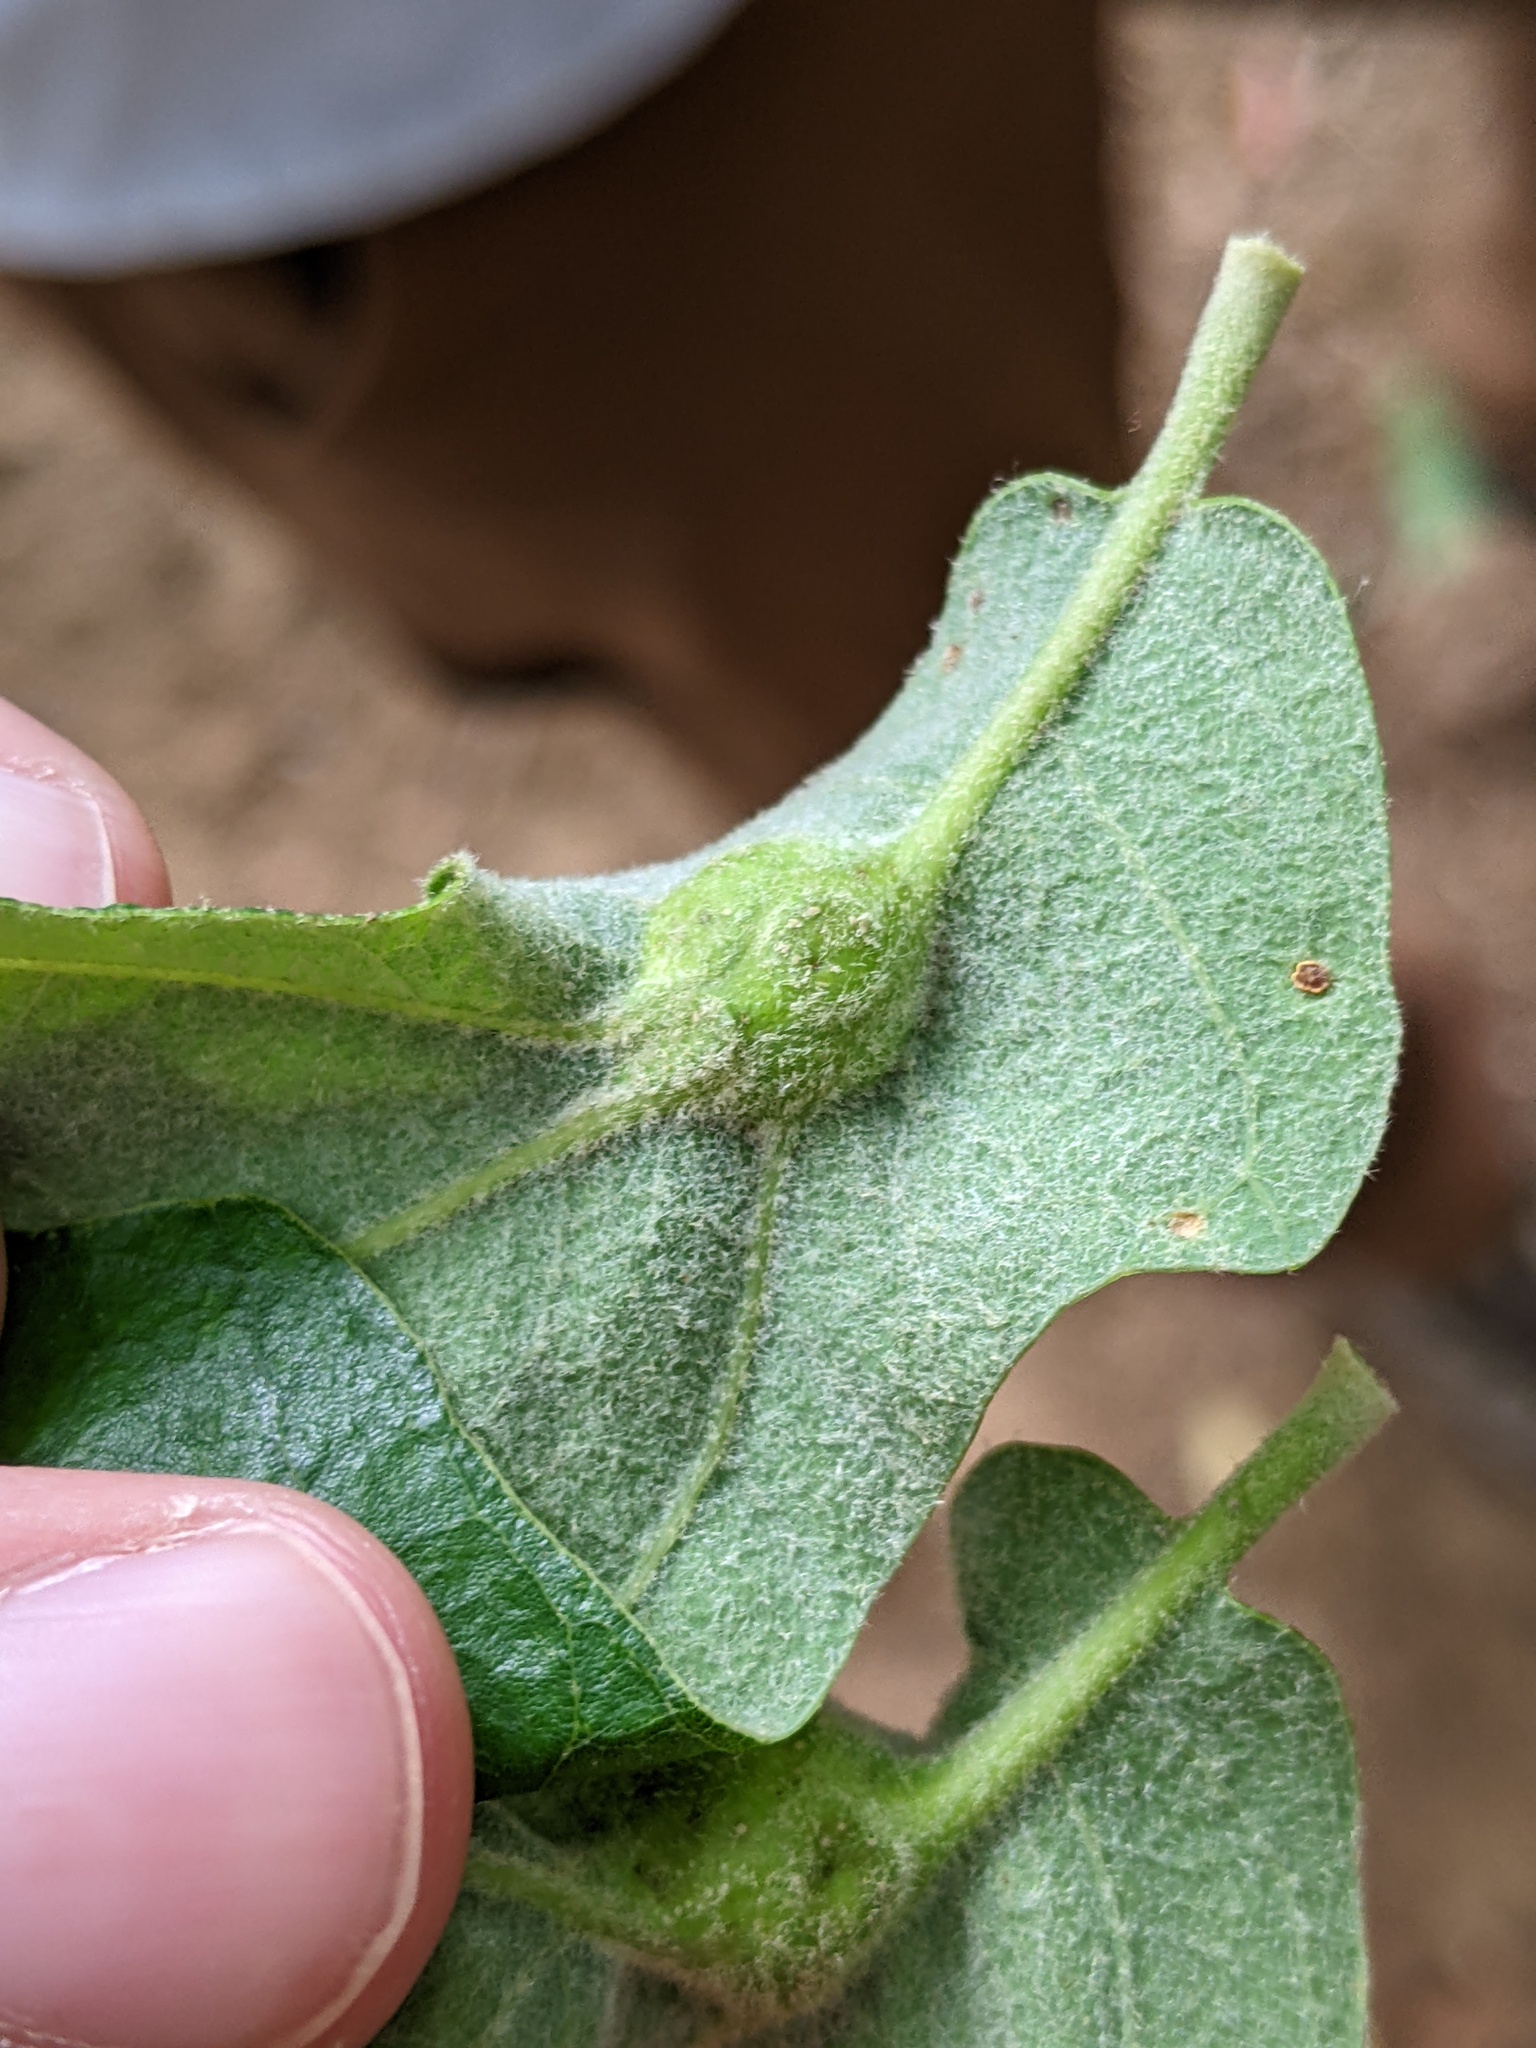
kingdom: Animalia
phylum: Arthropoda
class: Insecta
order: Hymenoptera
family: Cynipidae
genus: Andricus
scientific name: Andricus
